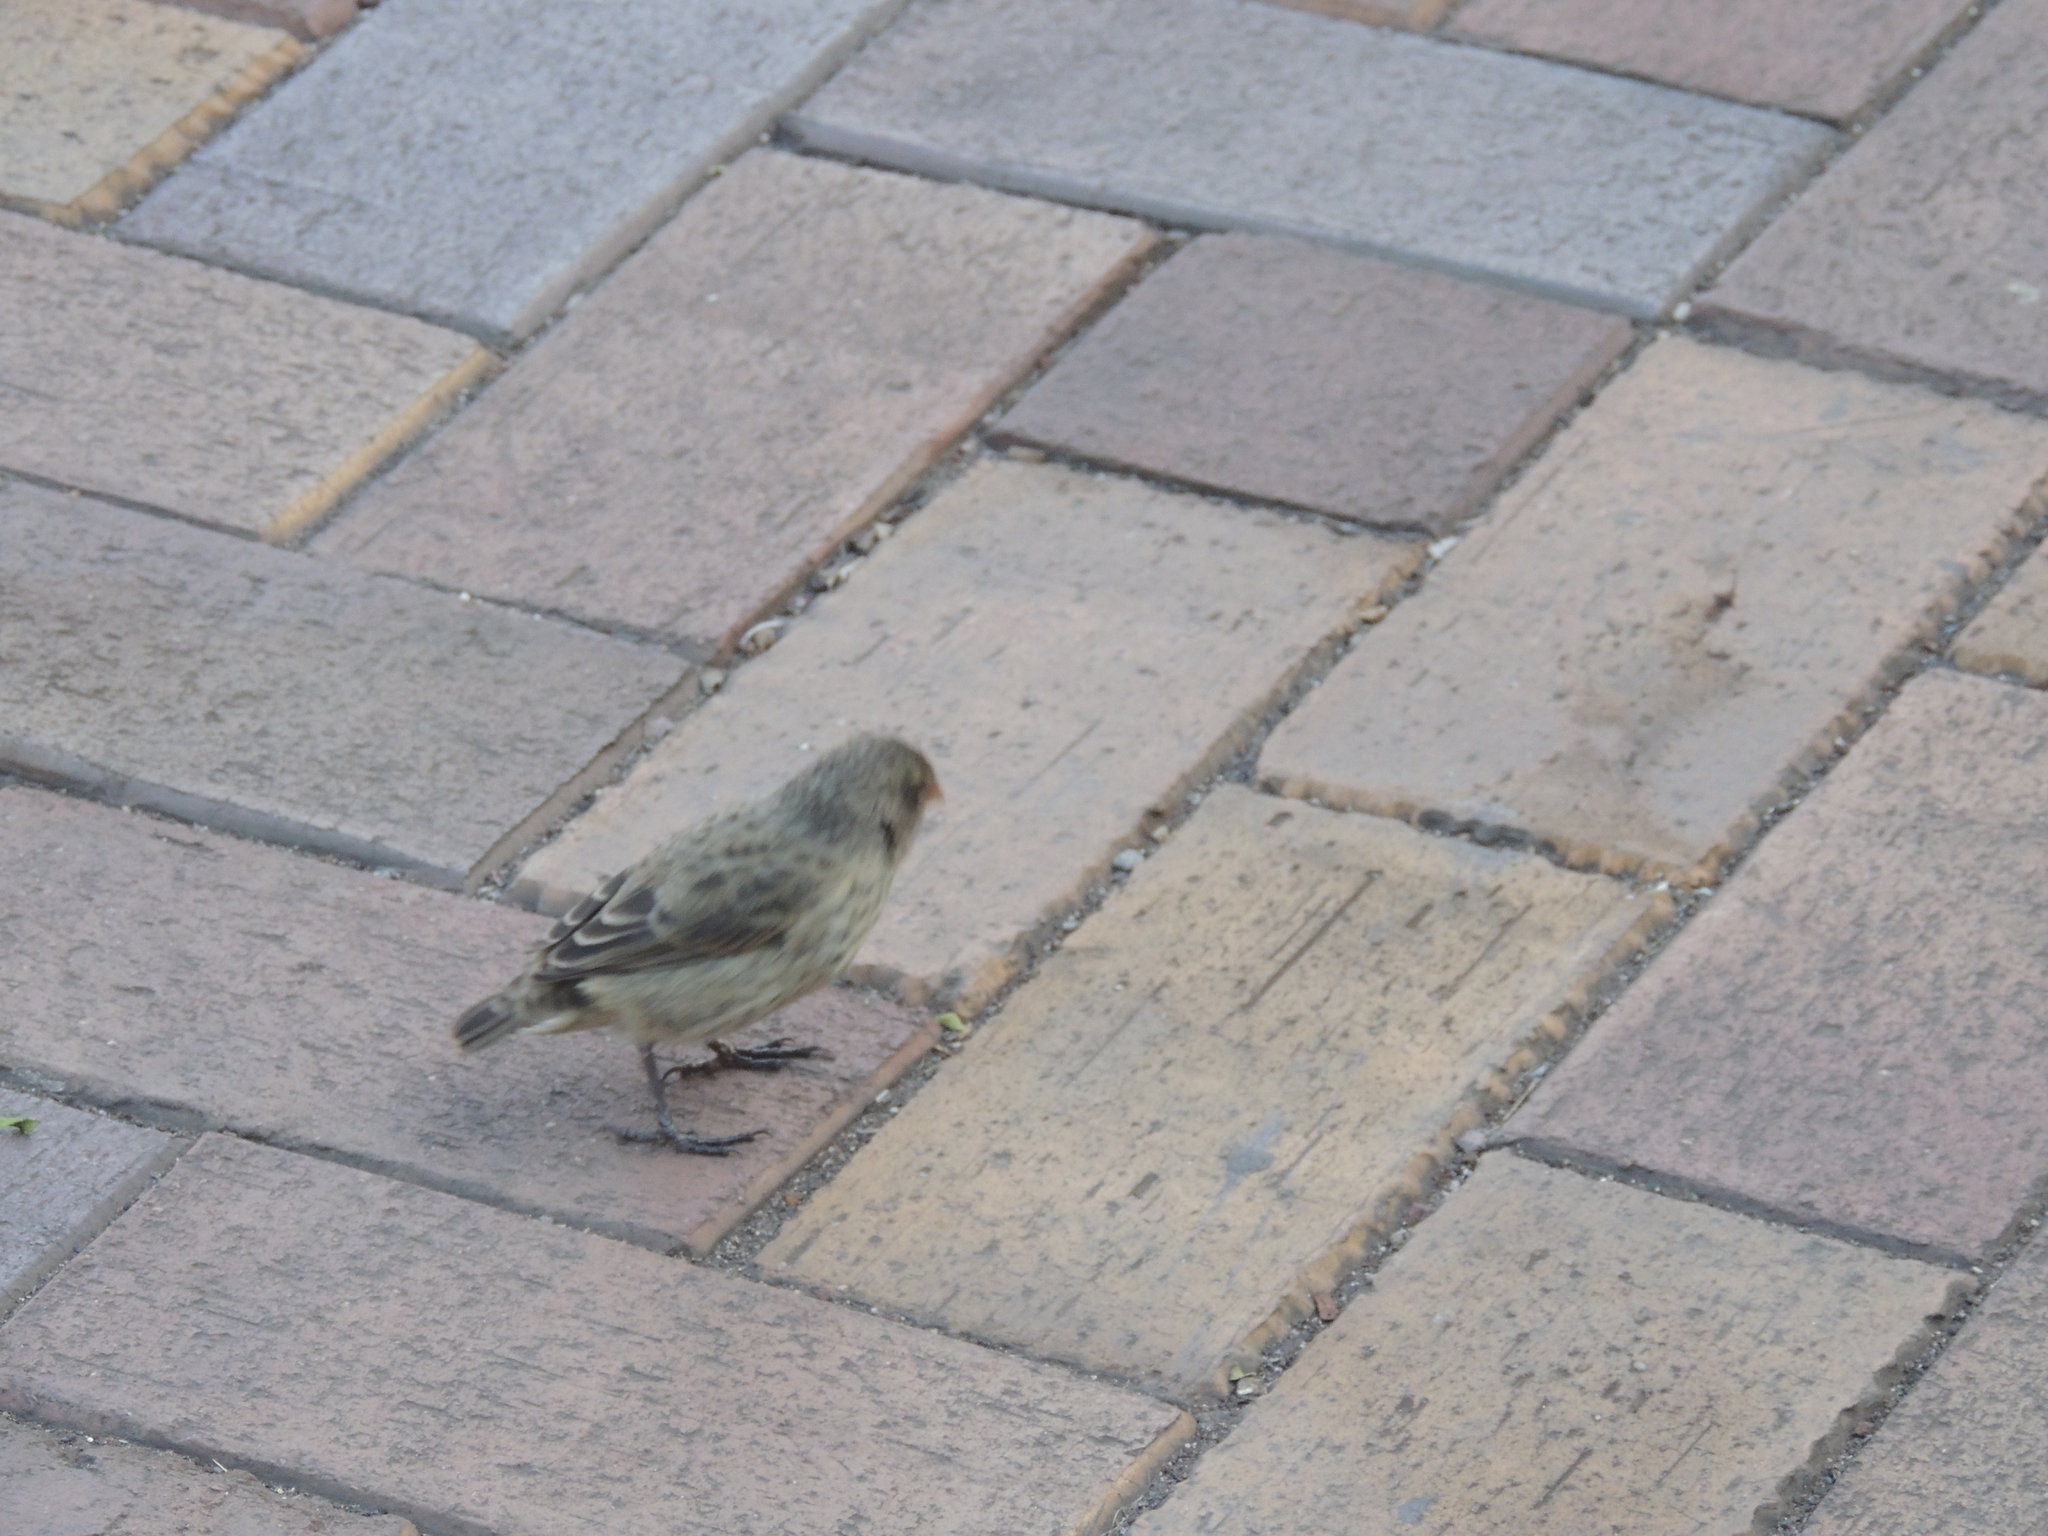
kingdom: Animalia
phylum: Chordata
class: Aves
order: Passeriformes
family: Thraupidae
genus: Geospiza
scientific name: Geospiza fuliginosa
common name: Small ground finch
